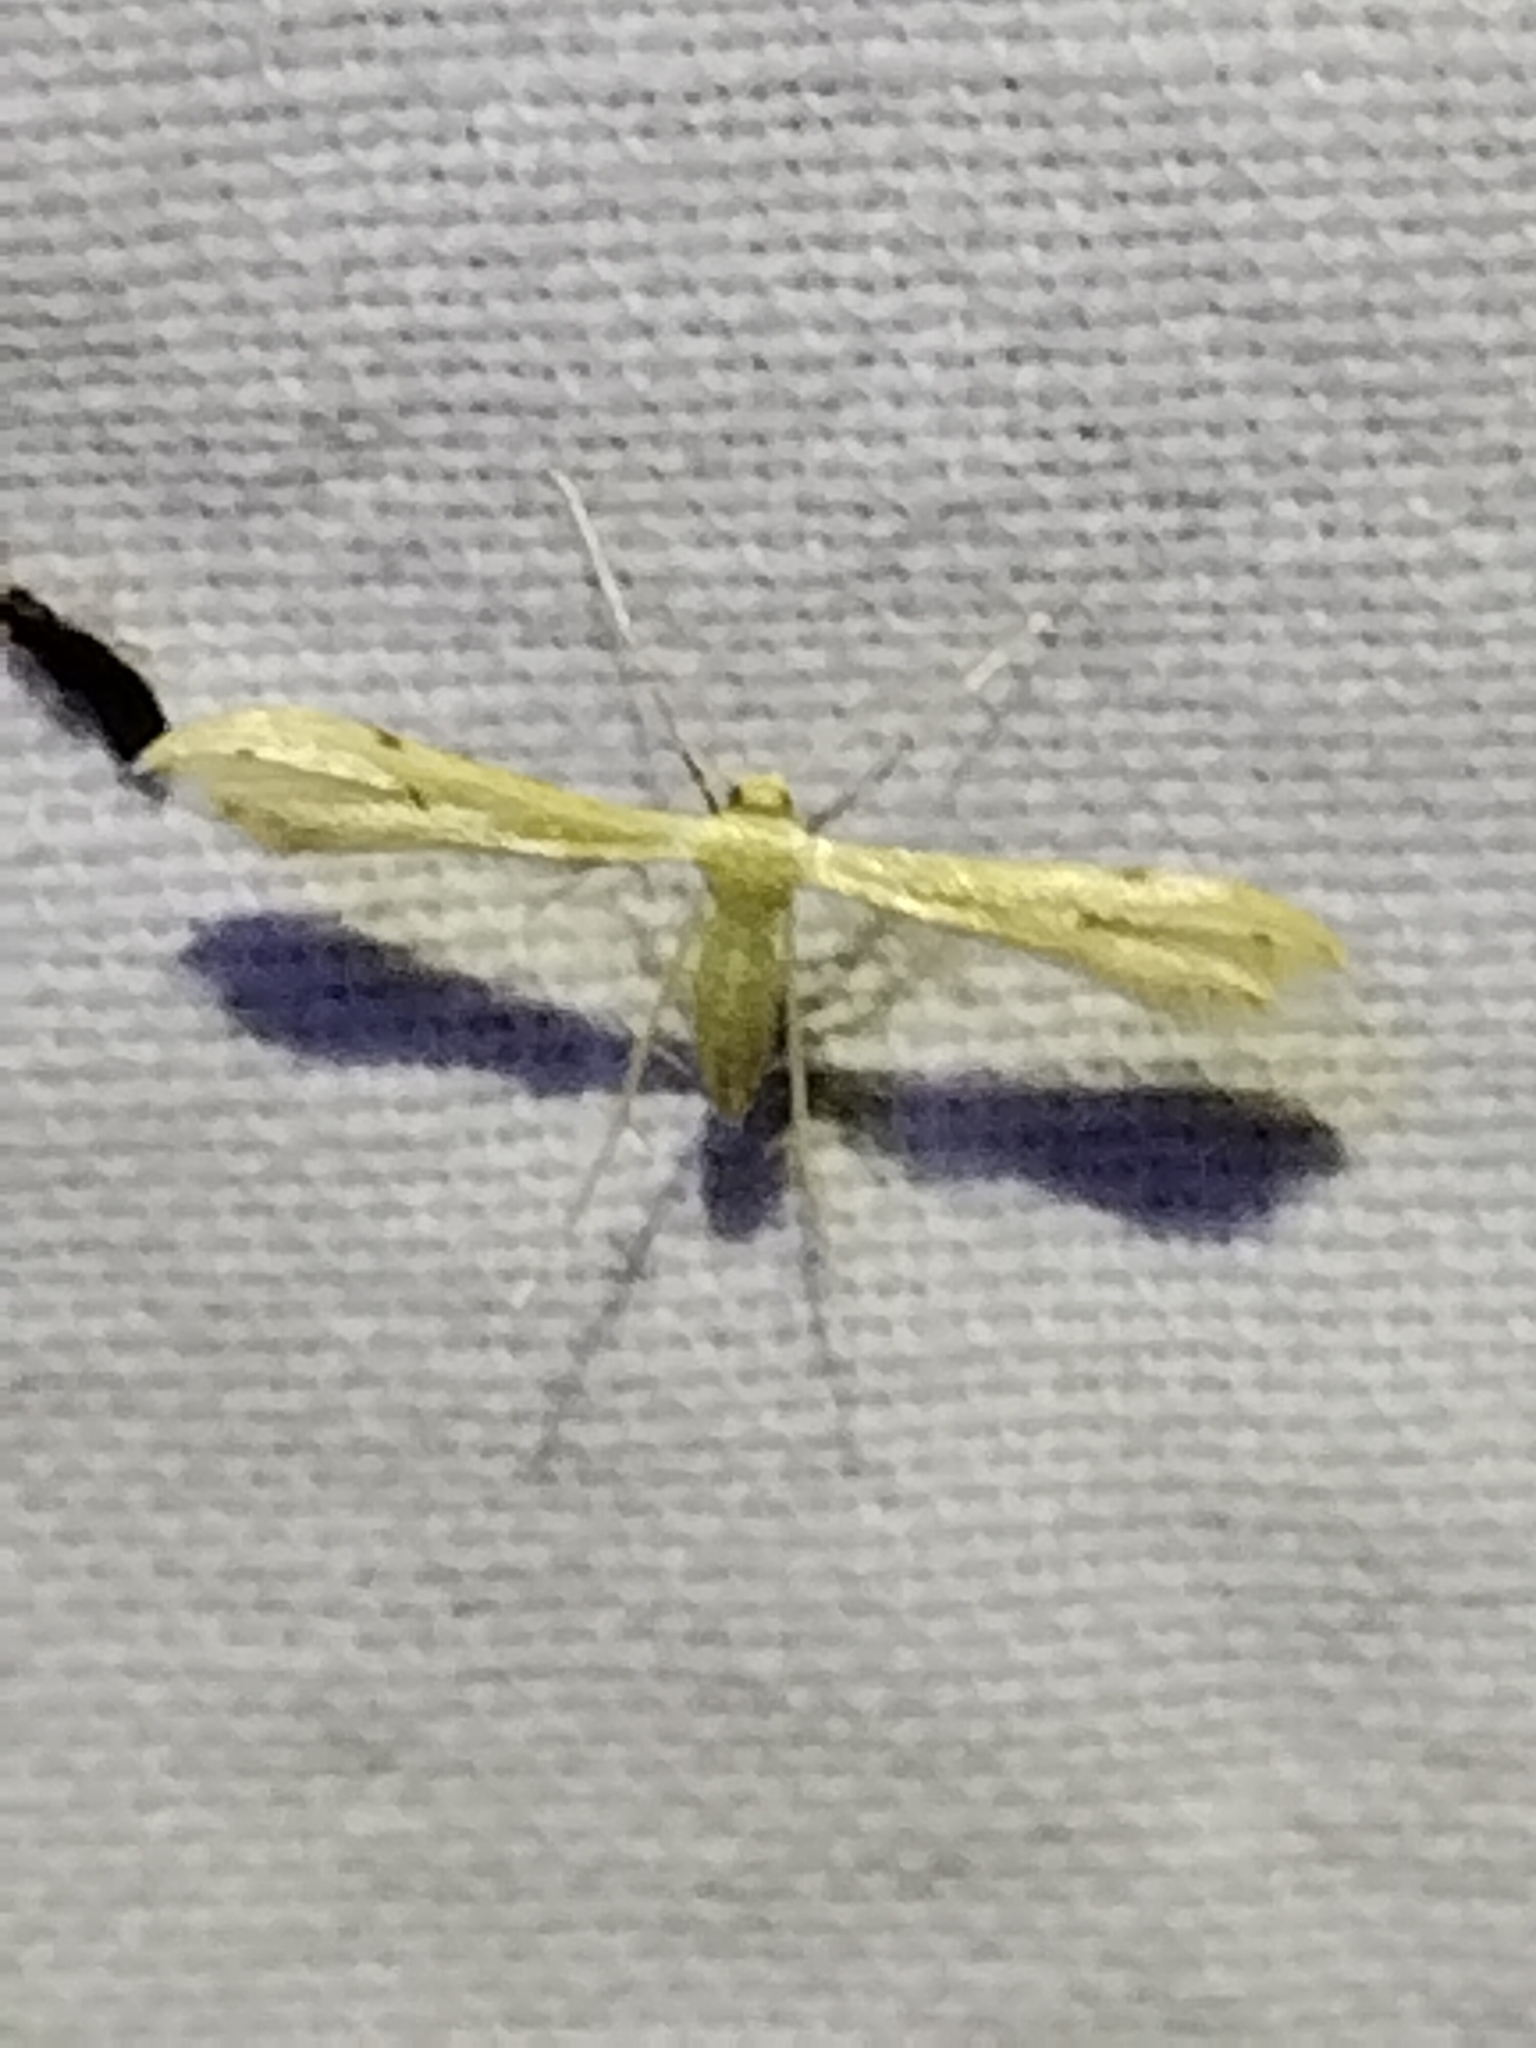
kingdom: Animalia
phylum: Arthropoda
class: Insecta
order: Lepidoptera
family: Pterophoridae
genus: Adaina
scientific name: Adaina
